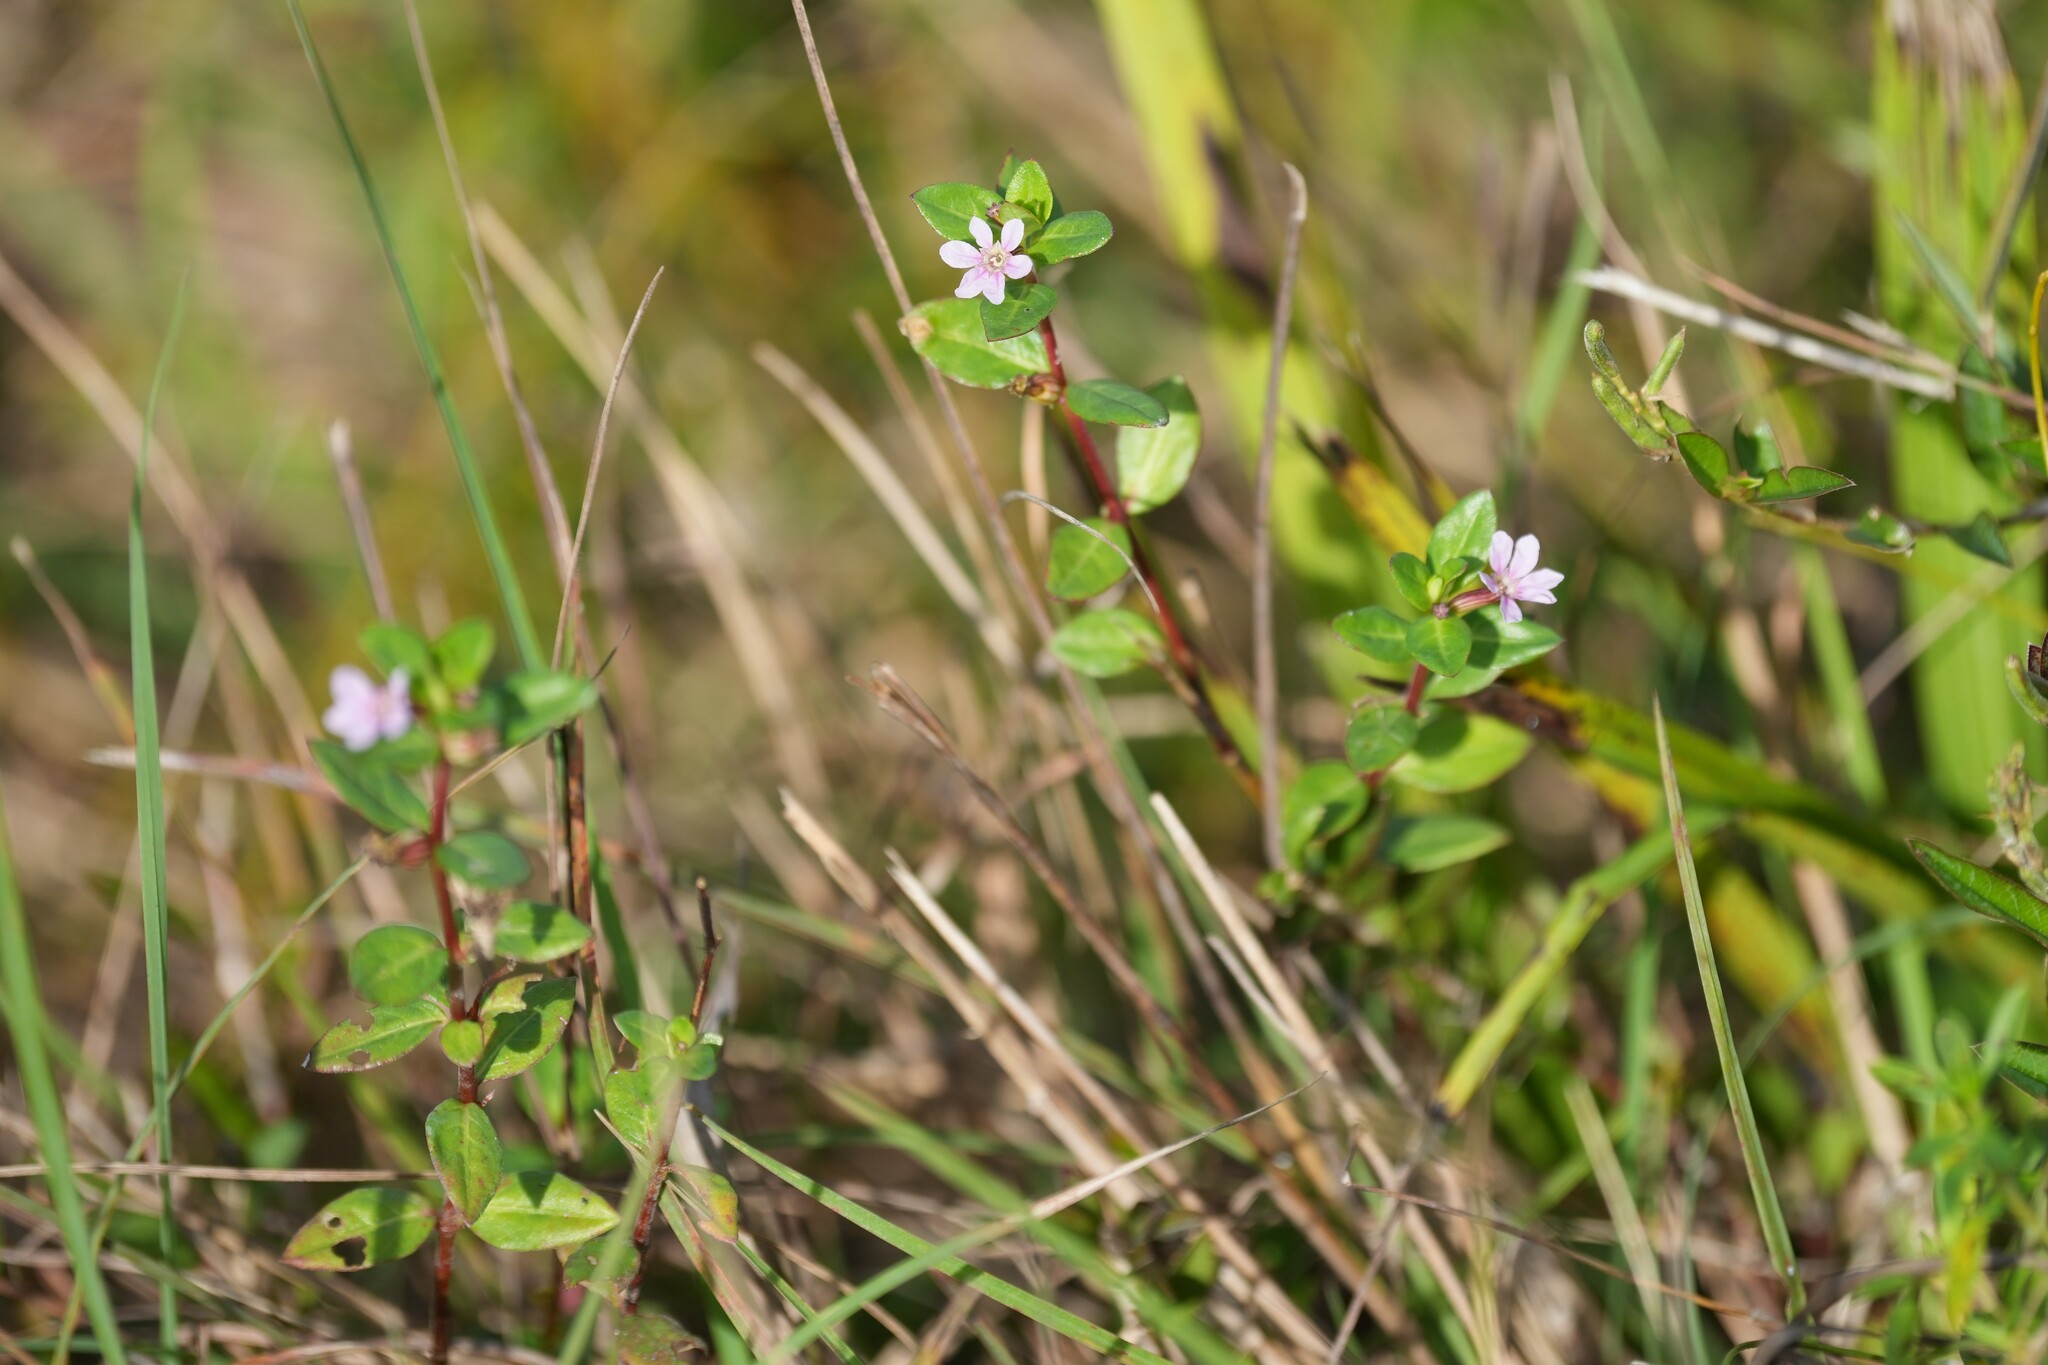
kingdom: Plantae
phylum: Tracheophyta
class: Magnoliopsida
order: Myrtales
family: Lythraceae
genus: Cuphea
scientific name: Cuphea strigulosa
